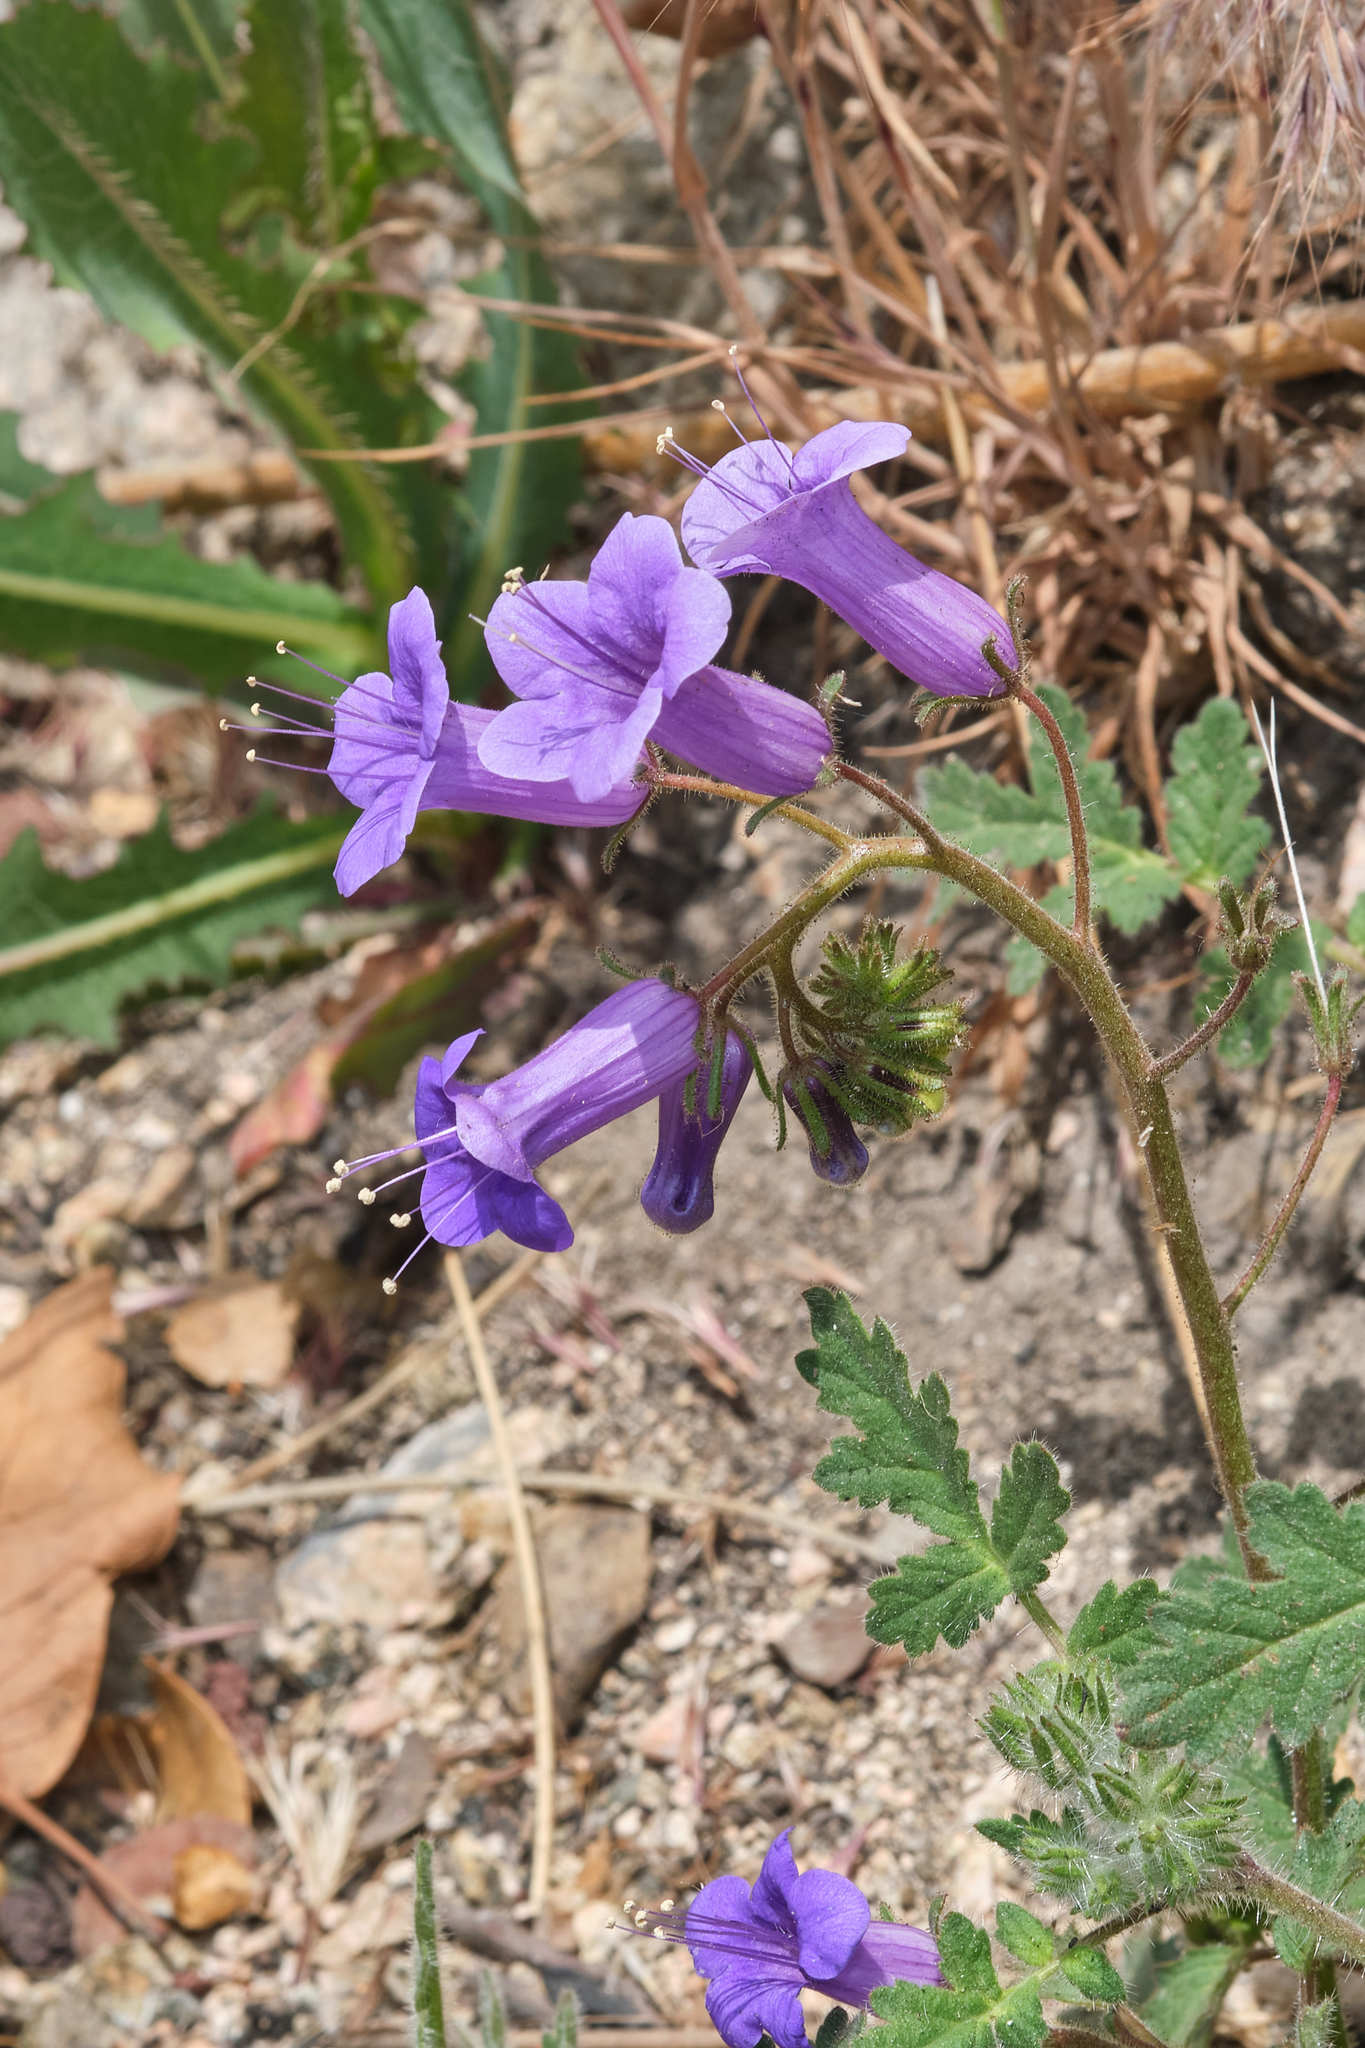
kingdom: Plantae
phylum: Tracheophyta
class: Magnoliopsida
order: Boraginales
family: Hydrophyllaceae
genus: Phacelia
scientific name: Phacelia minor
